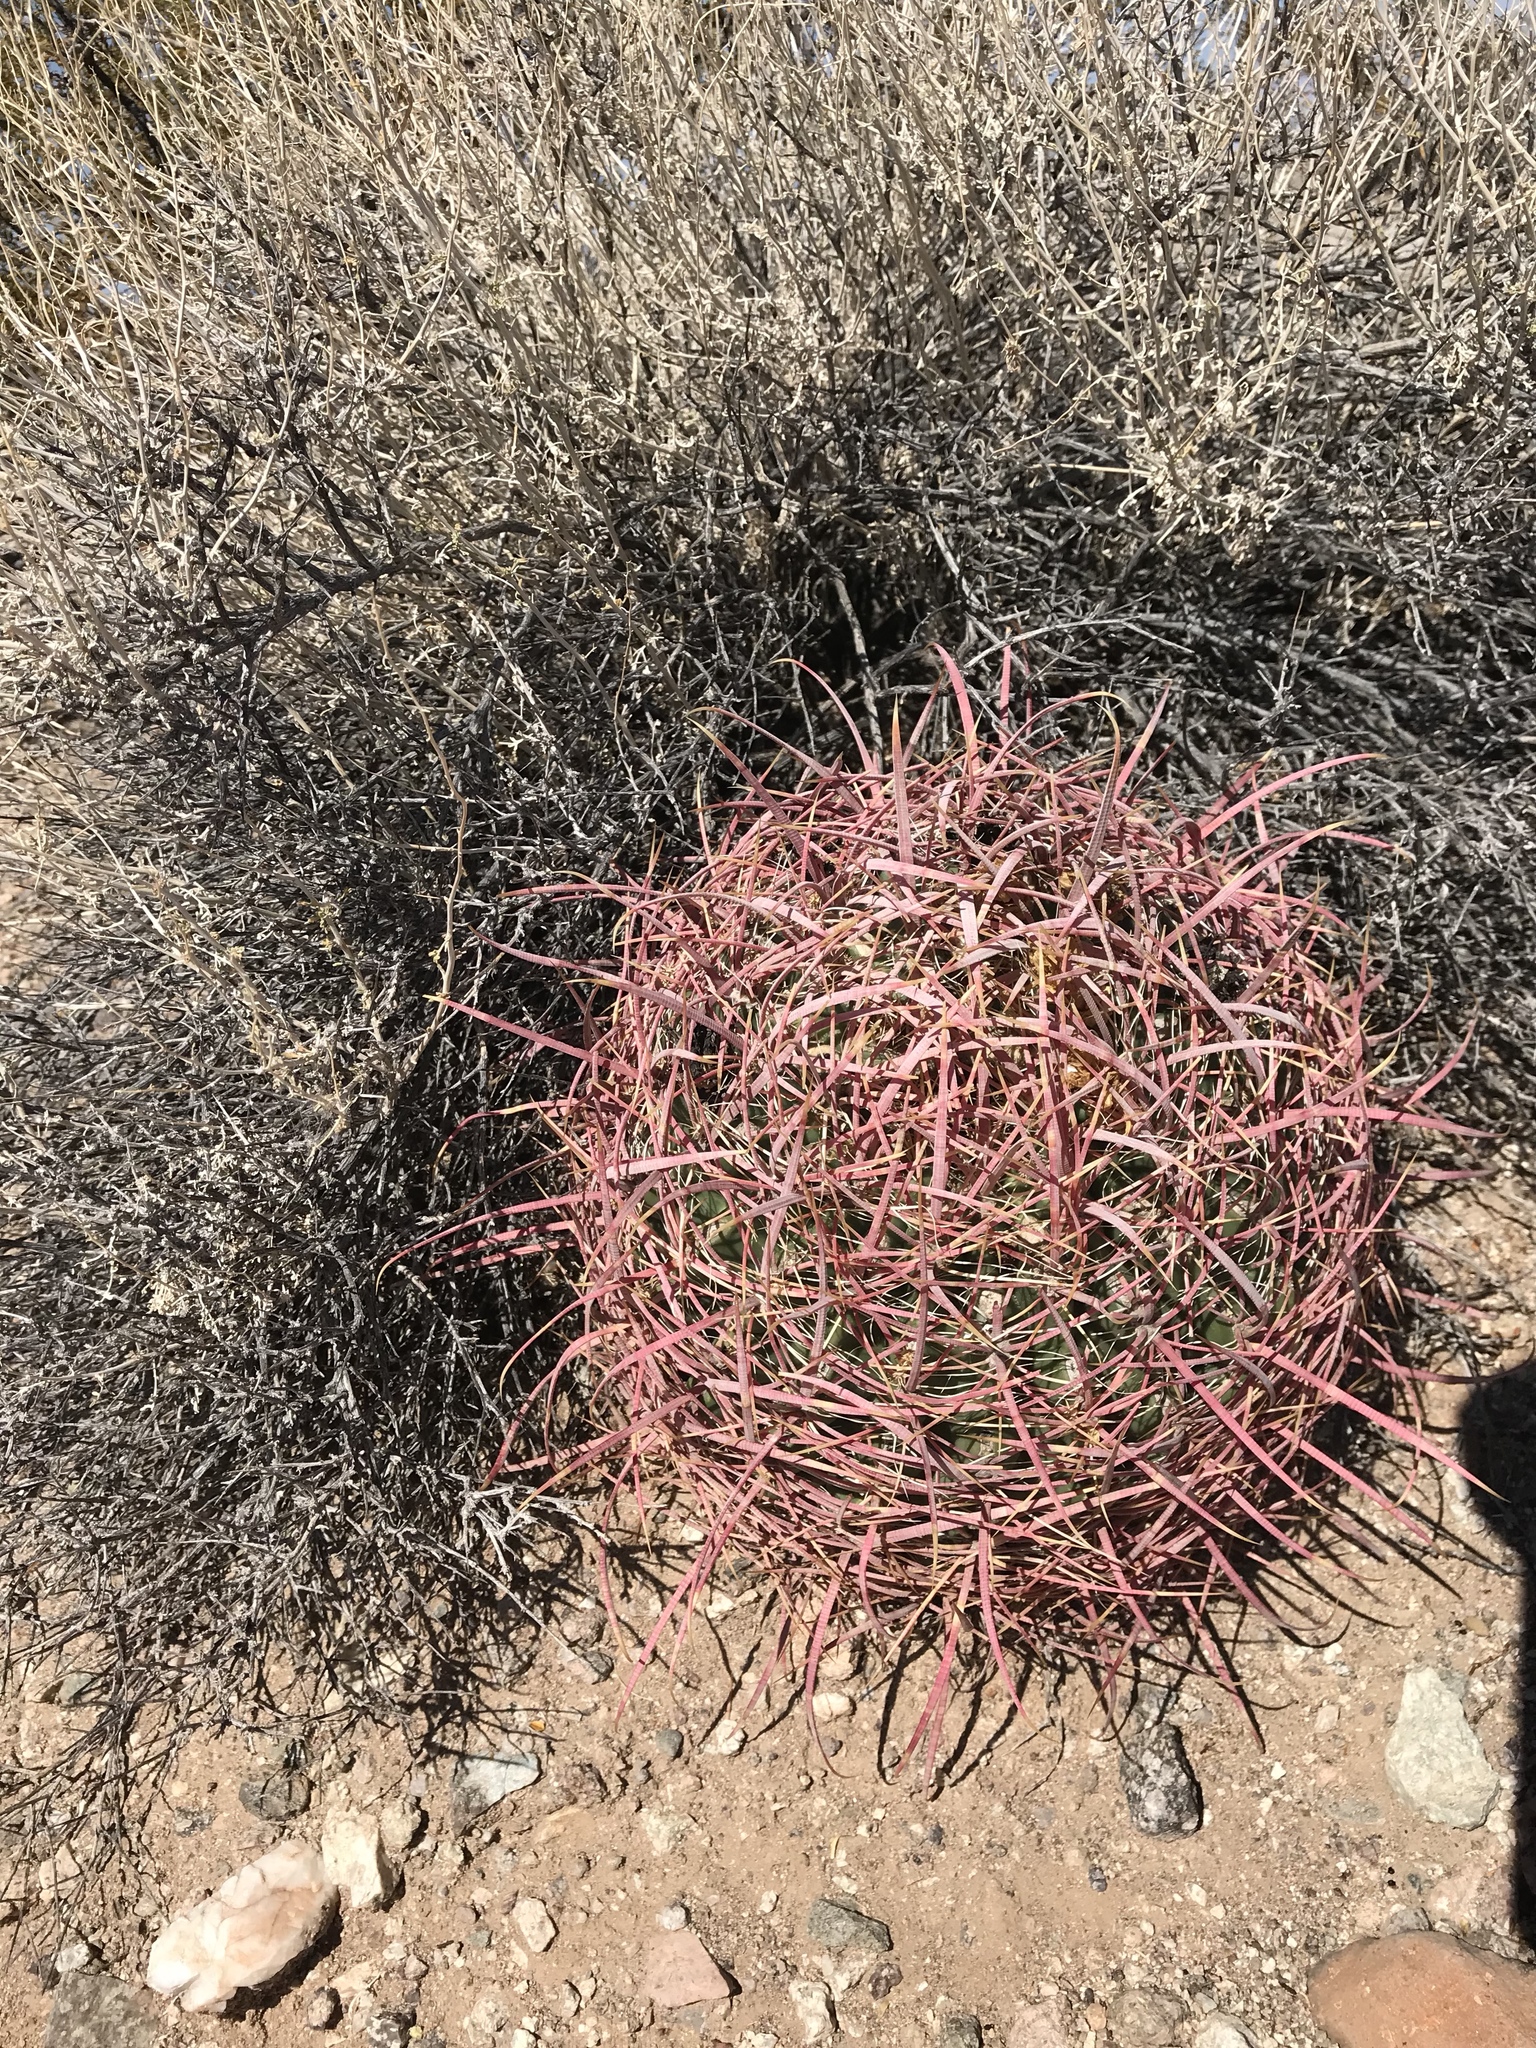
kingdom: Plantae
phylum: Tracheophyta
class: Magnoliopsida
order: Caryophyllales
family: Cactaceae
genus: Ferocactus
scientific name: Ferocactus cylindraceus
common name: California barrel cactus
